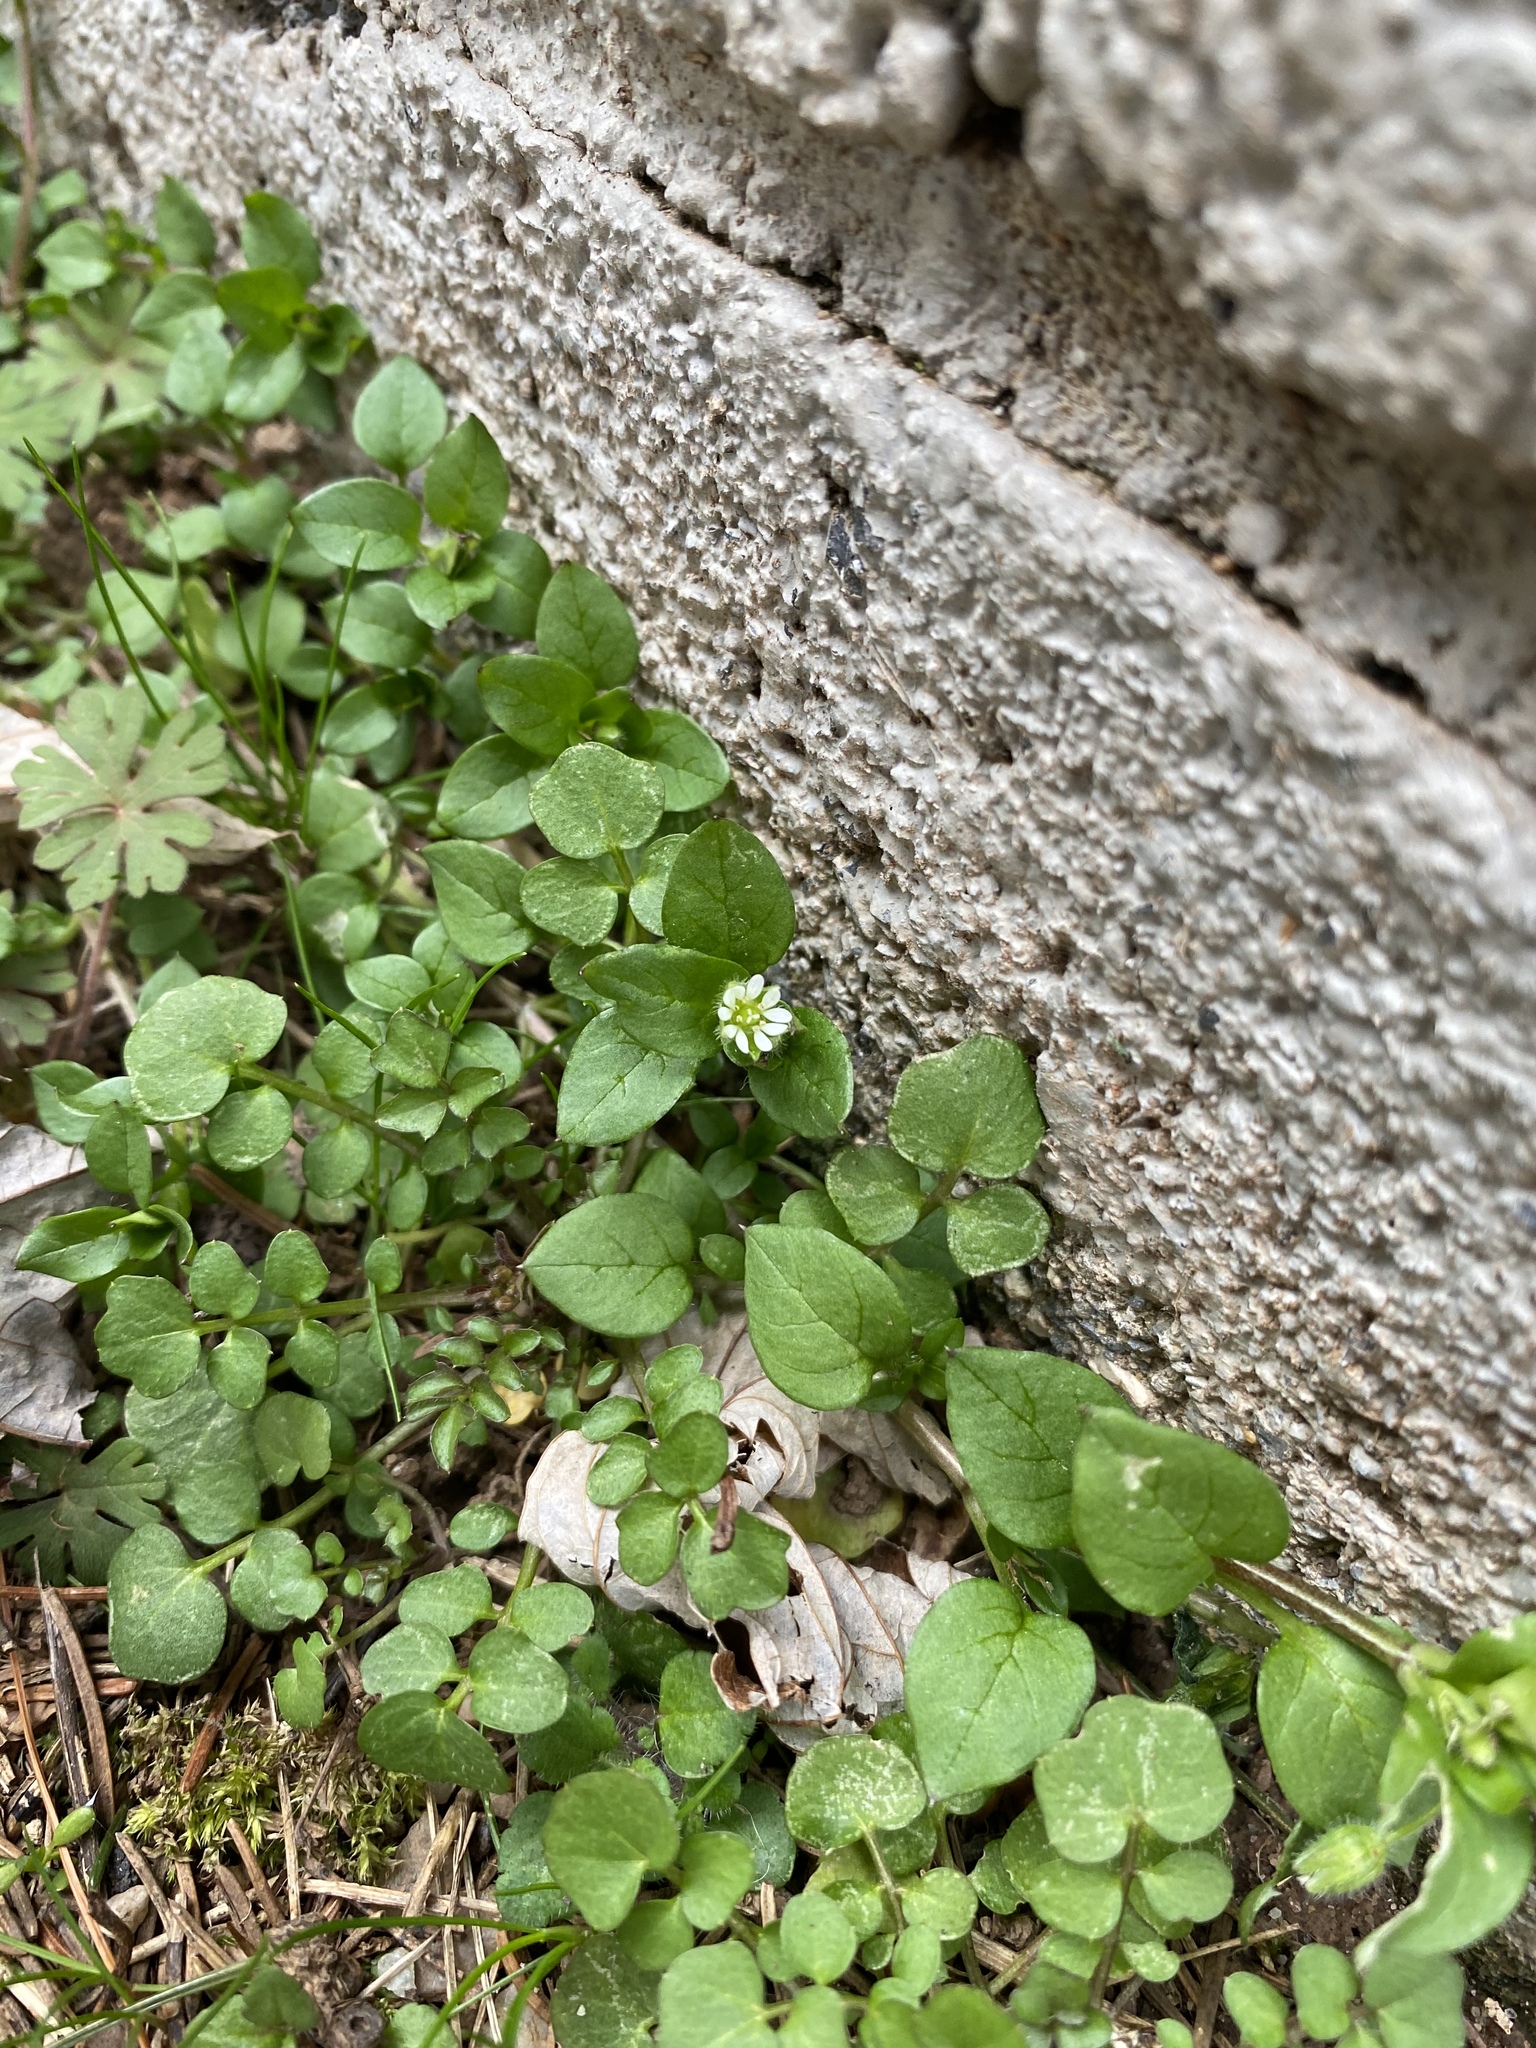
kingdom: Plantae
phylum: Tracheophyta
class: Magnoliopsida
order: Caryophyllales
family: Caryophyllaceae
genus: Stellaria
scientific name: Stellaria media
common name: Common chickweed
